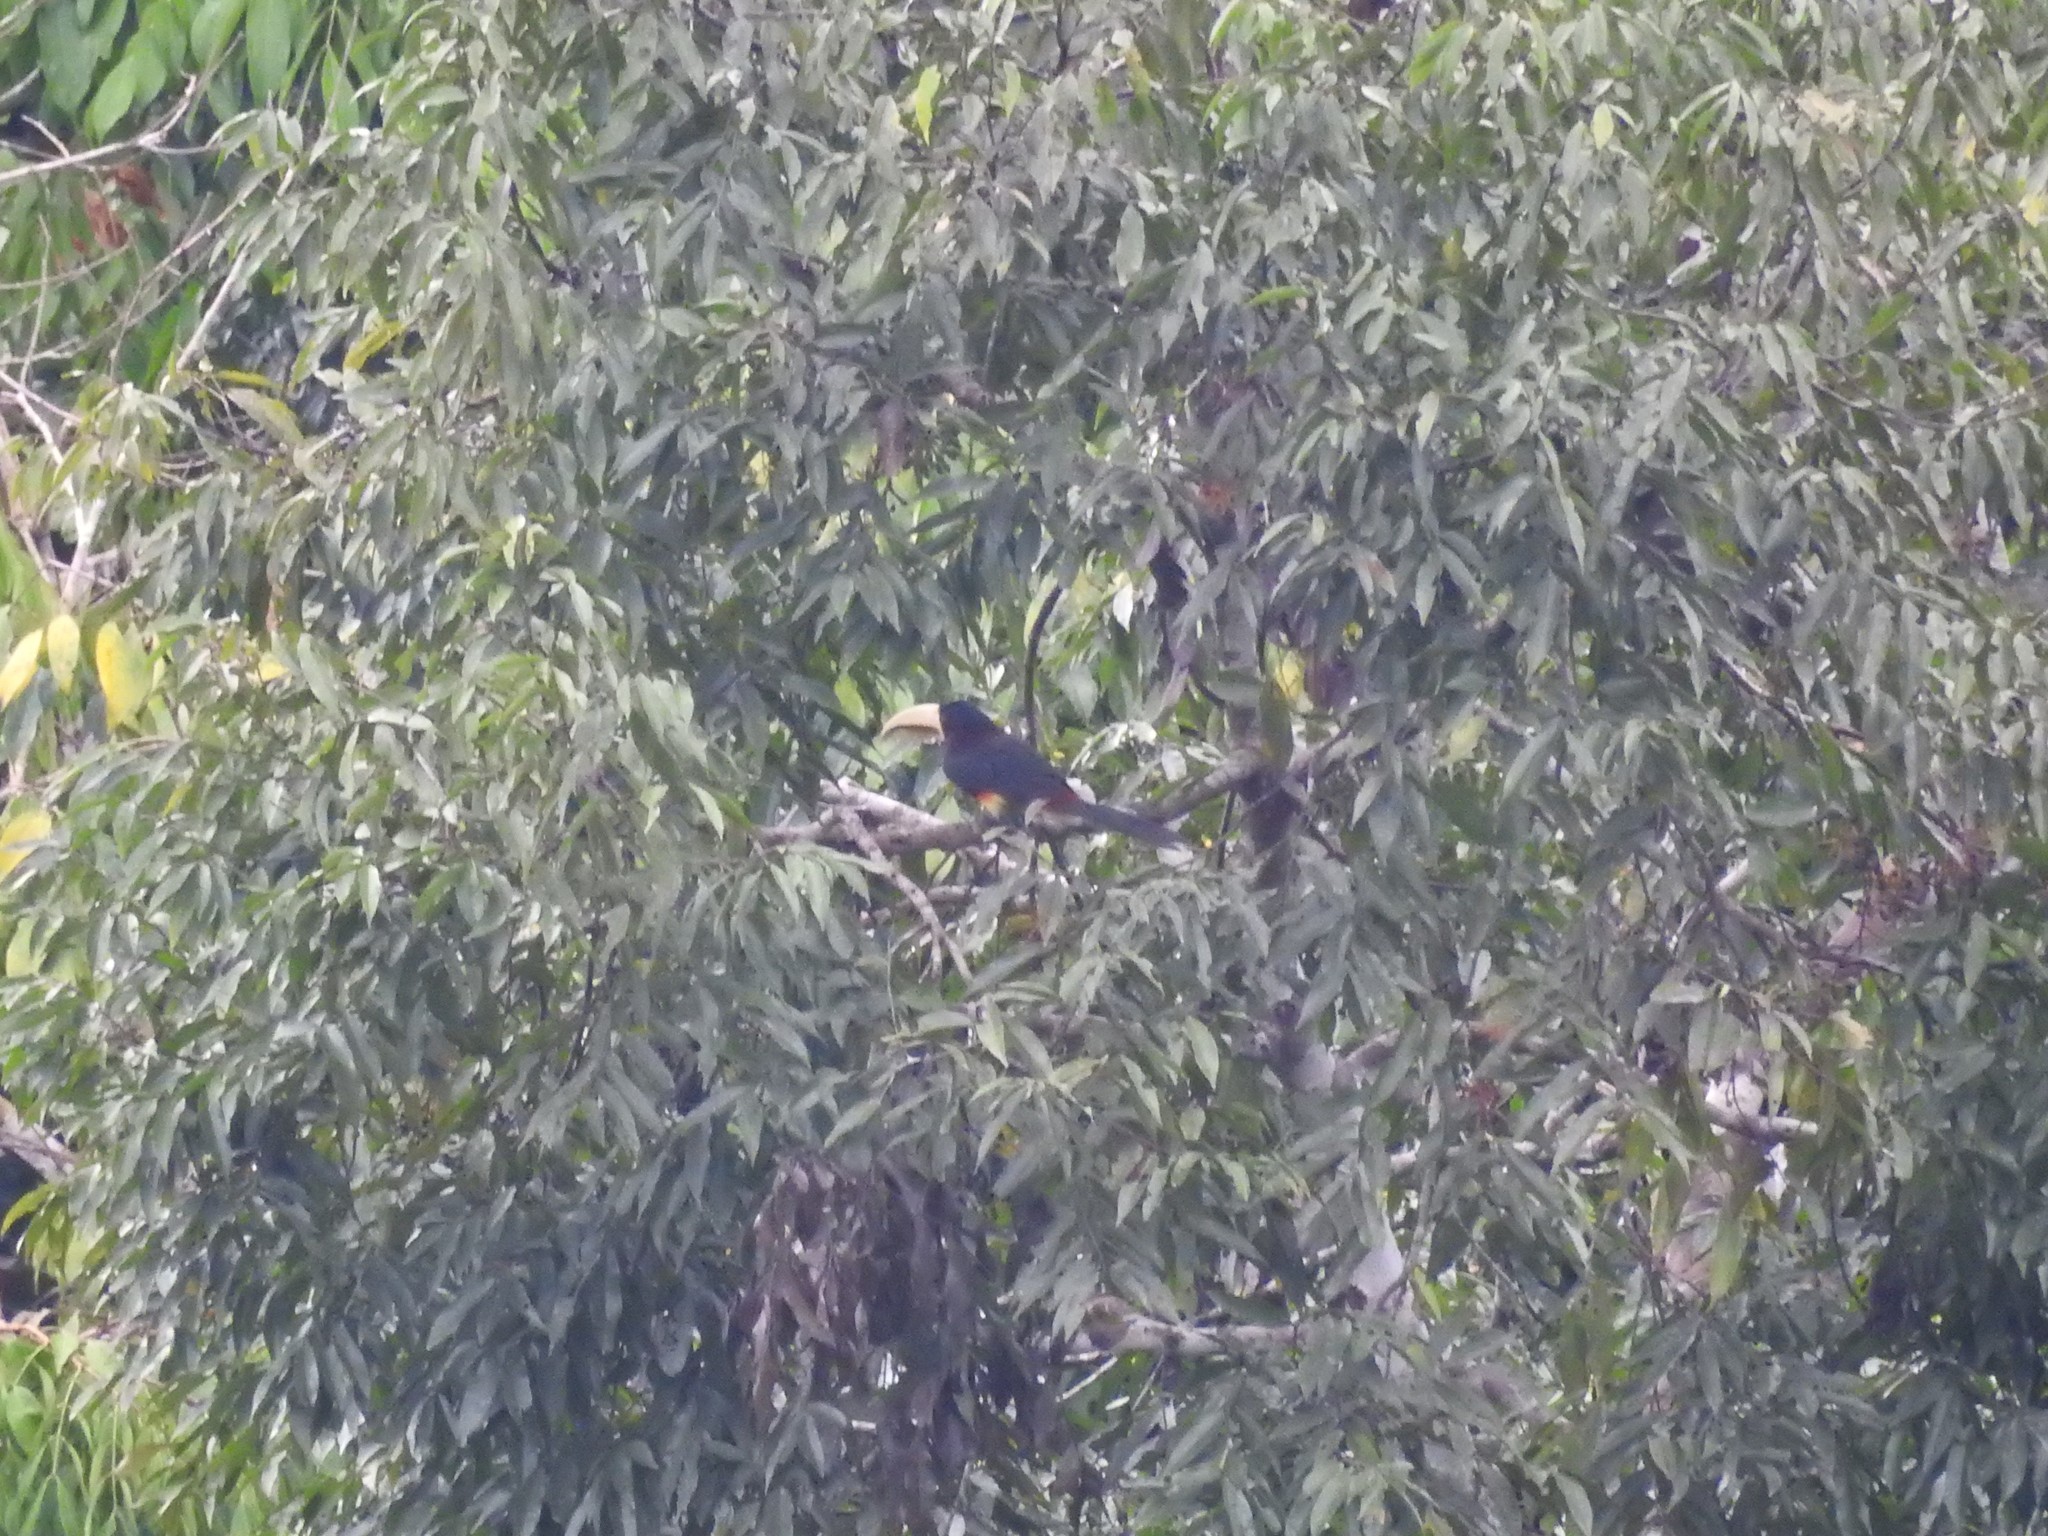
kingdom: Animalia
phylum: Chordata
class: Aves
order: Piciformes
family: Ramphastidae
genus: Pteroglossus
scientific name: Pteroglossus azara
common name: Ivory-billed aracari
